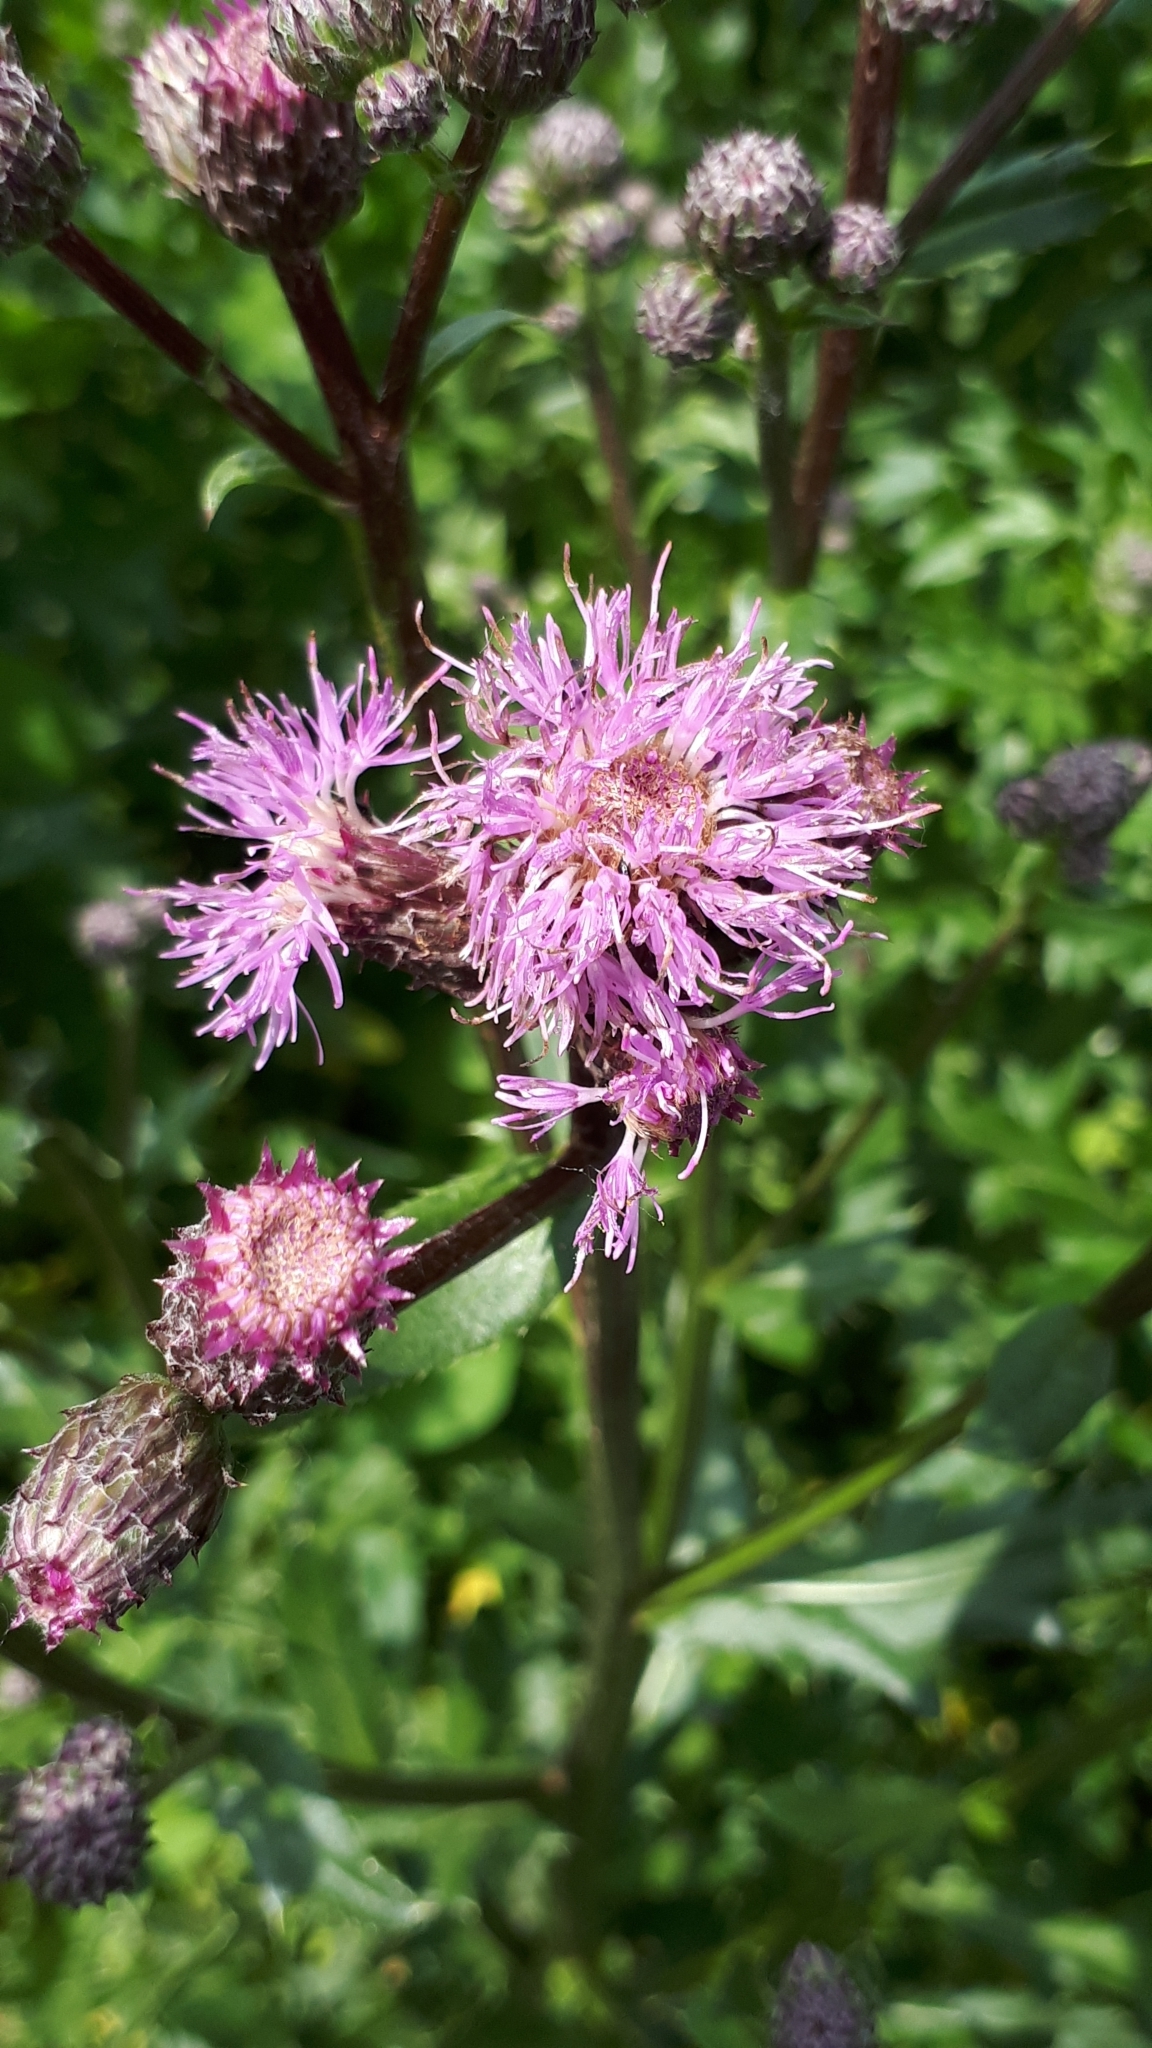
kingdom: Plantae
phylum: Tracheophyta
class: Magnoliopsida
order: Asterales
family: Asteraceae
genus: Cirsium
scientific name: Cirsium arvense
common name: Creeping thistle
